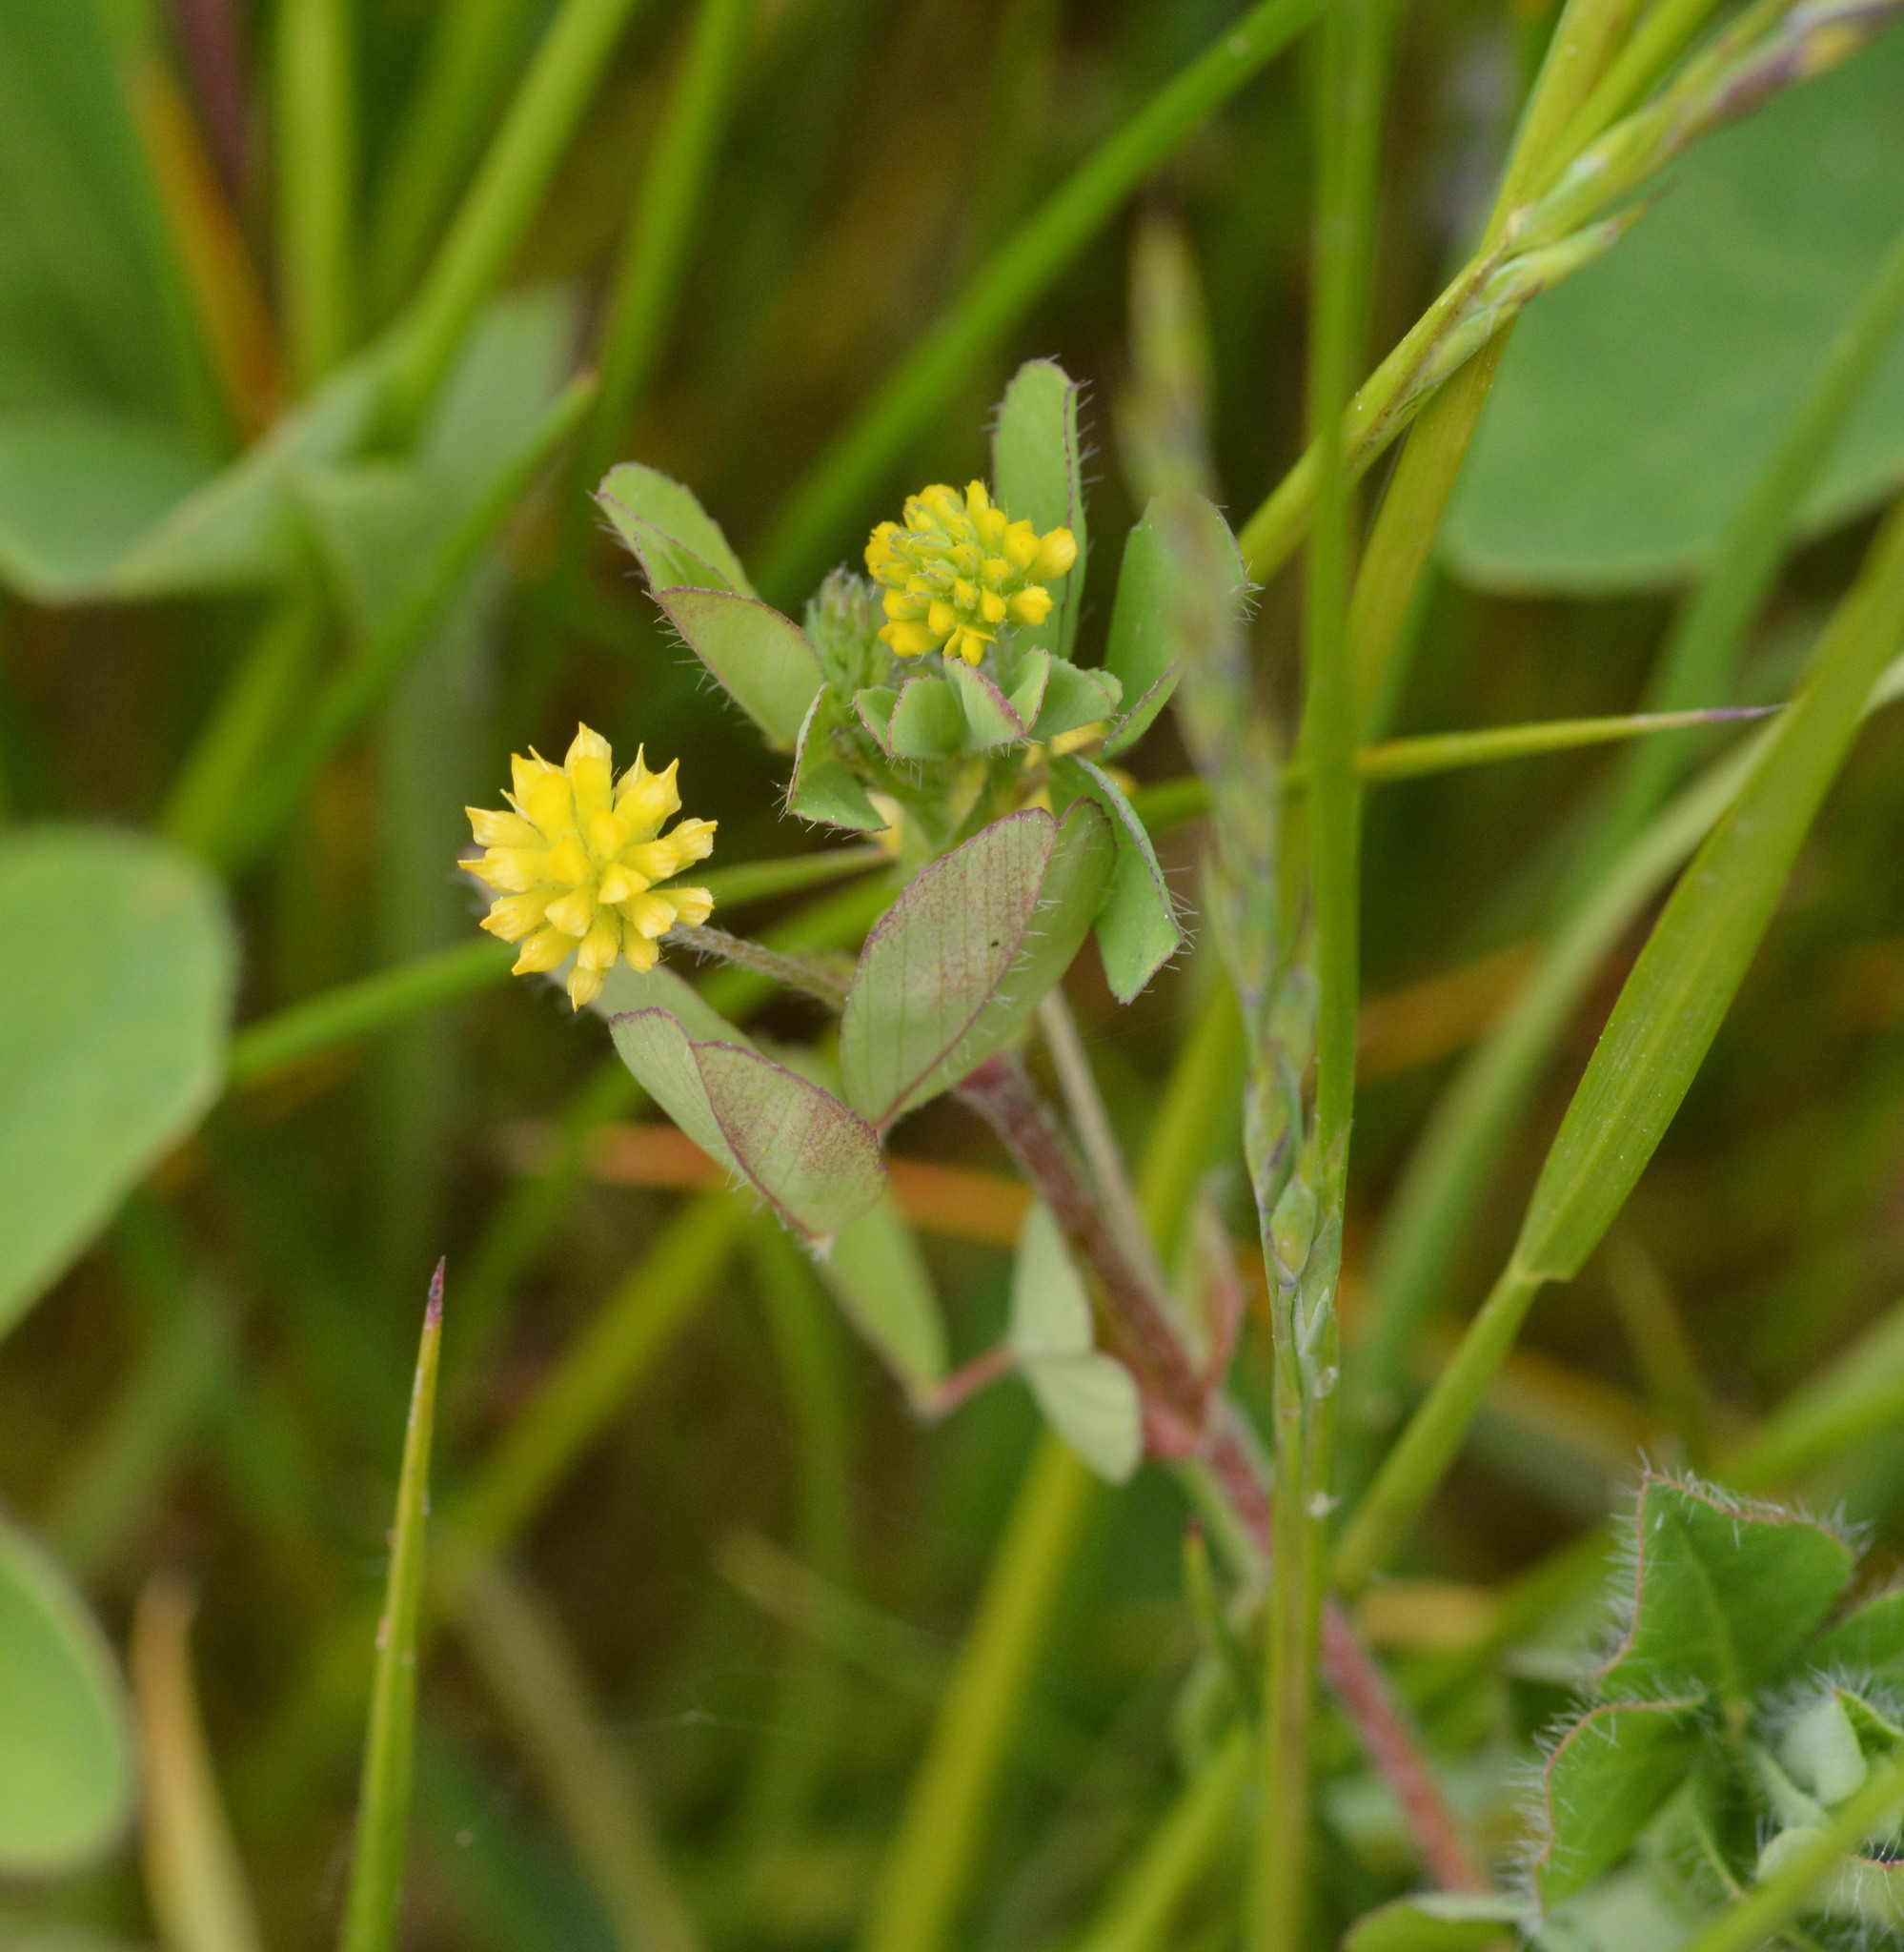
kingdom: Plantae
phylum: Tracheophyta
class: Magnoliopsida
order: Fabales
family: Fabaceae
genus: Trifolium
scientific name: Trifolium dubium
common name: Suckling clover
